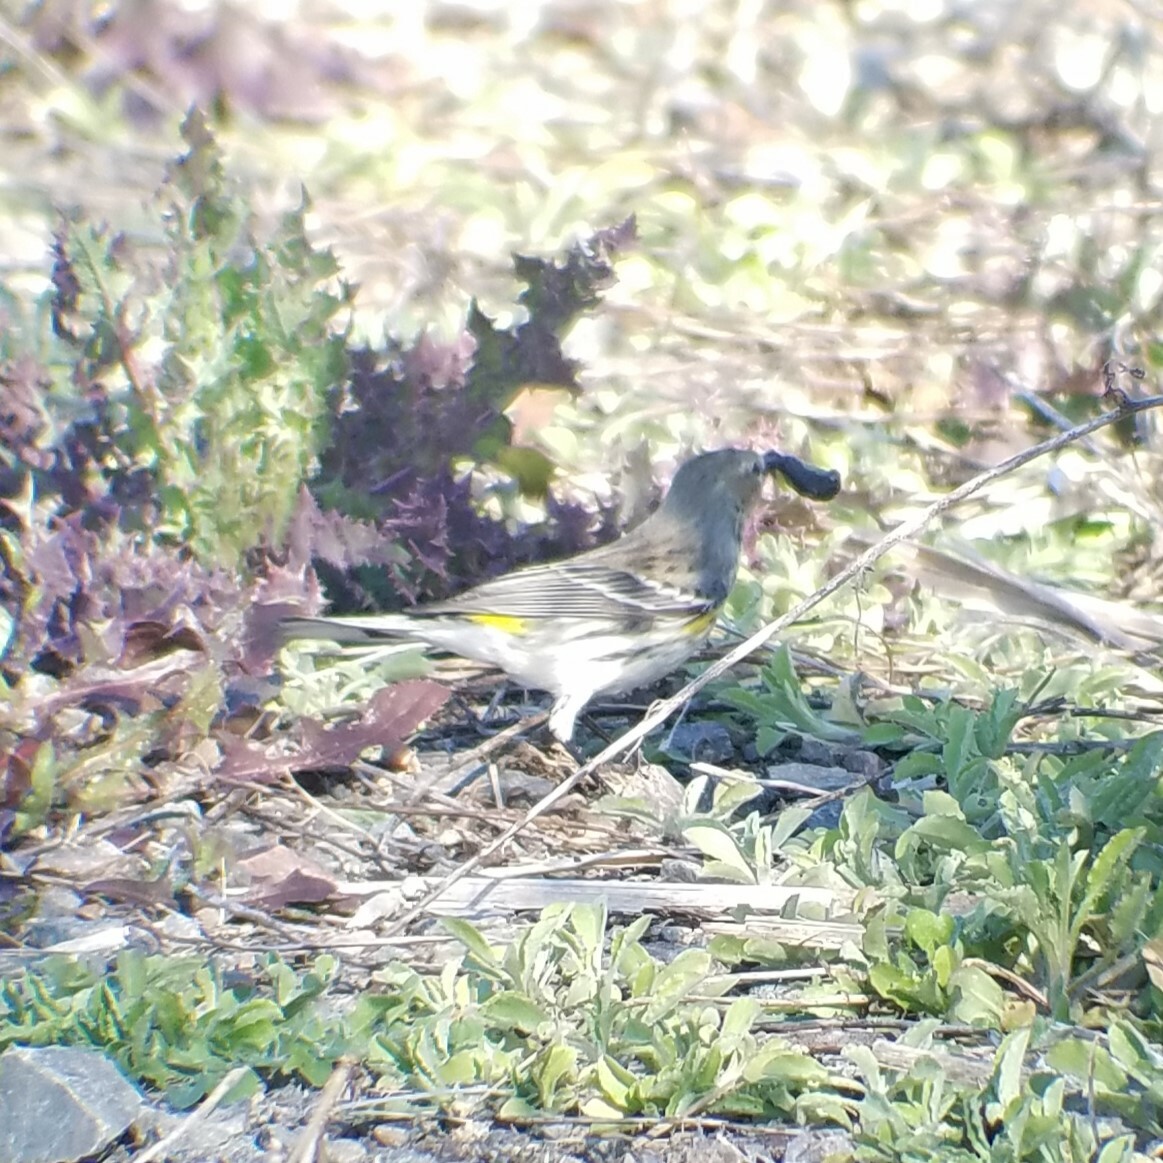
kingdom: Animalia
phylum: Chordata
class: Aves
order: Passeriformes
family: Parulidae
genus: Setophaga
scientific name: Setophaga coronata
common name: Myrtle warbler
